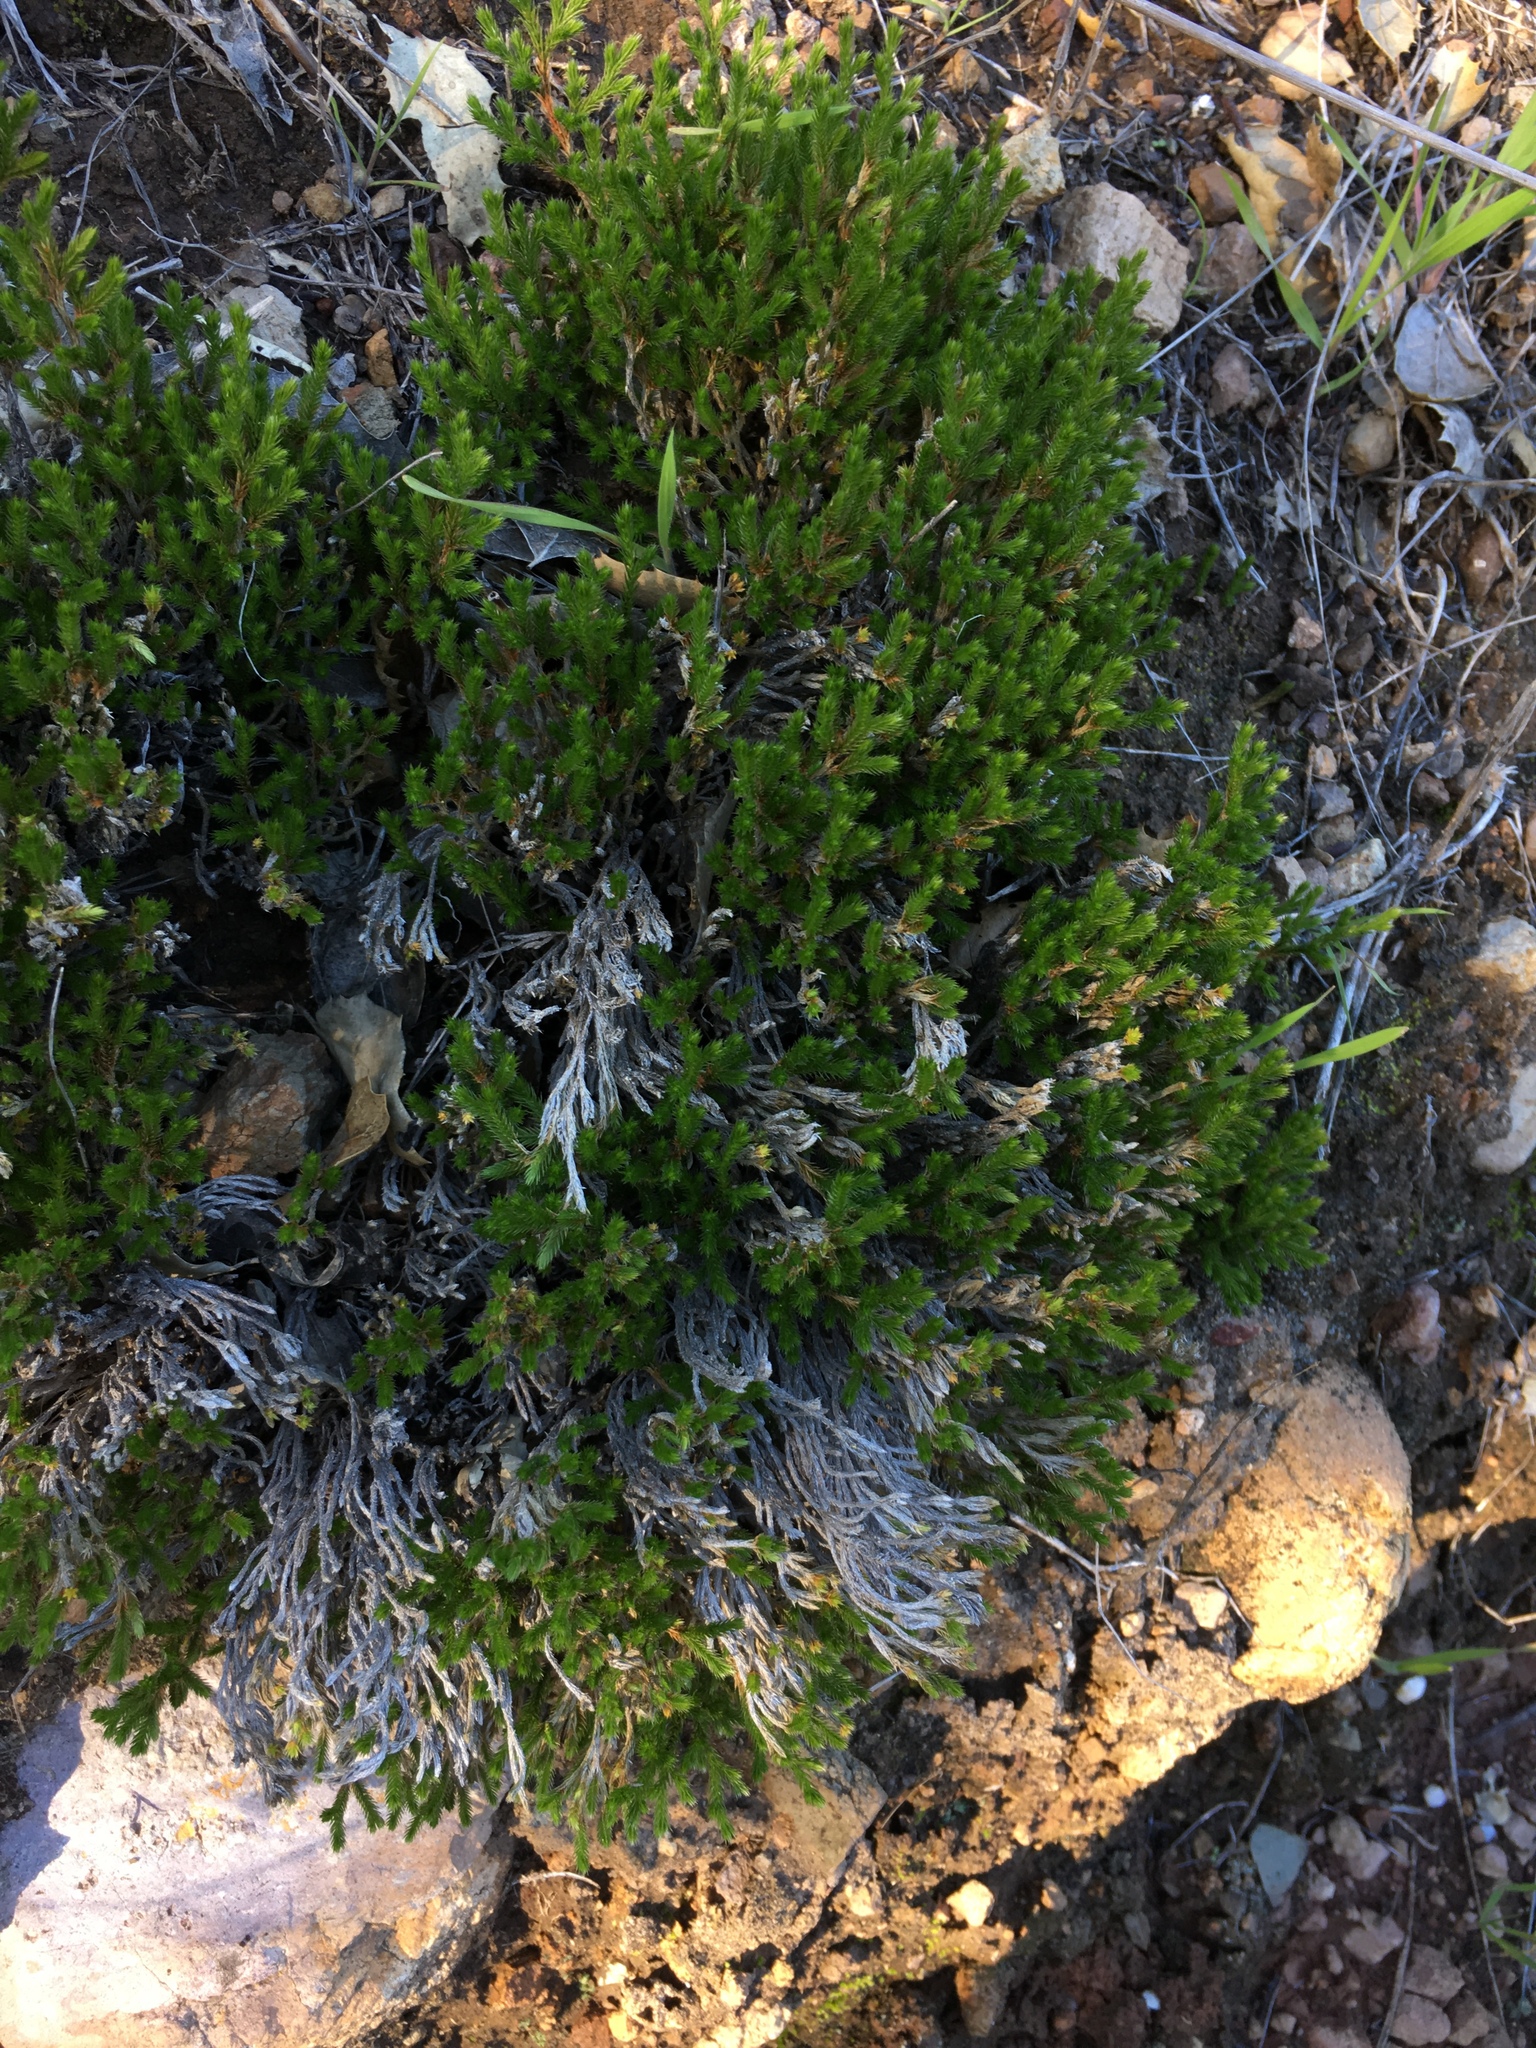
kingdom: Plantae
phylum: Tracheophyta
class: Lycopodiopsida
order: Selaginellales
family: Selaginellaceae
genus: Selaginella
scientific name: Selaginella bigelovii
